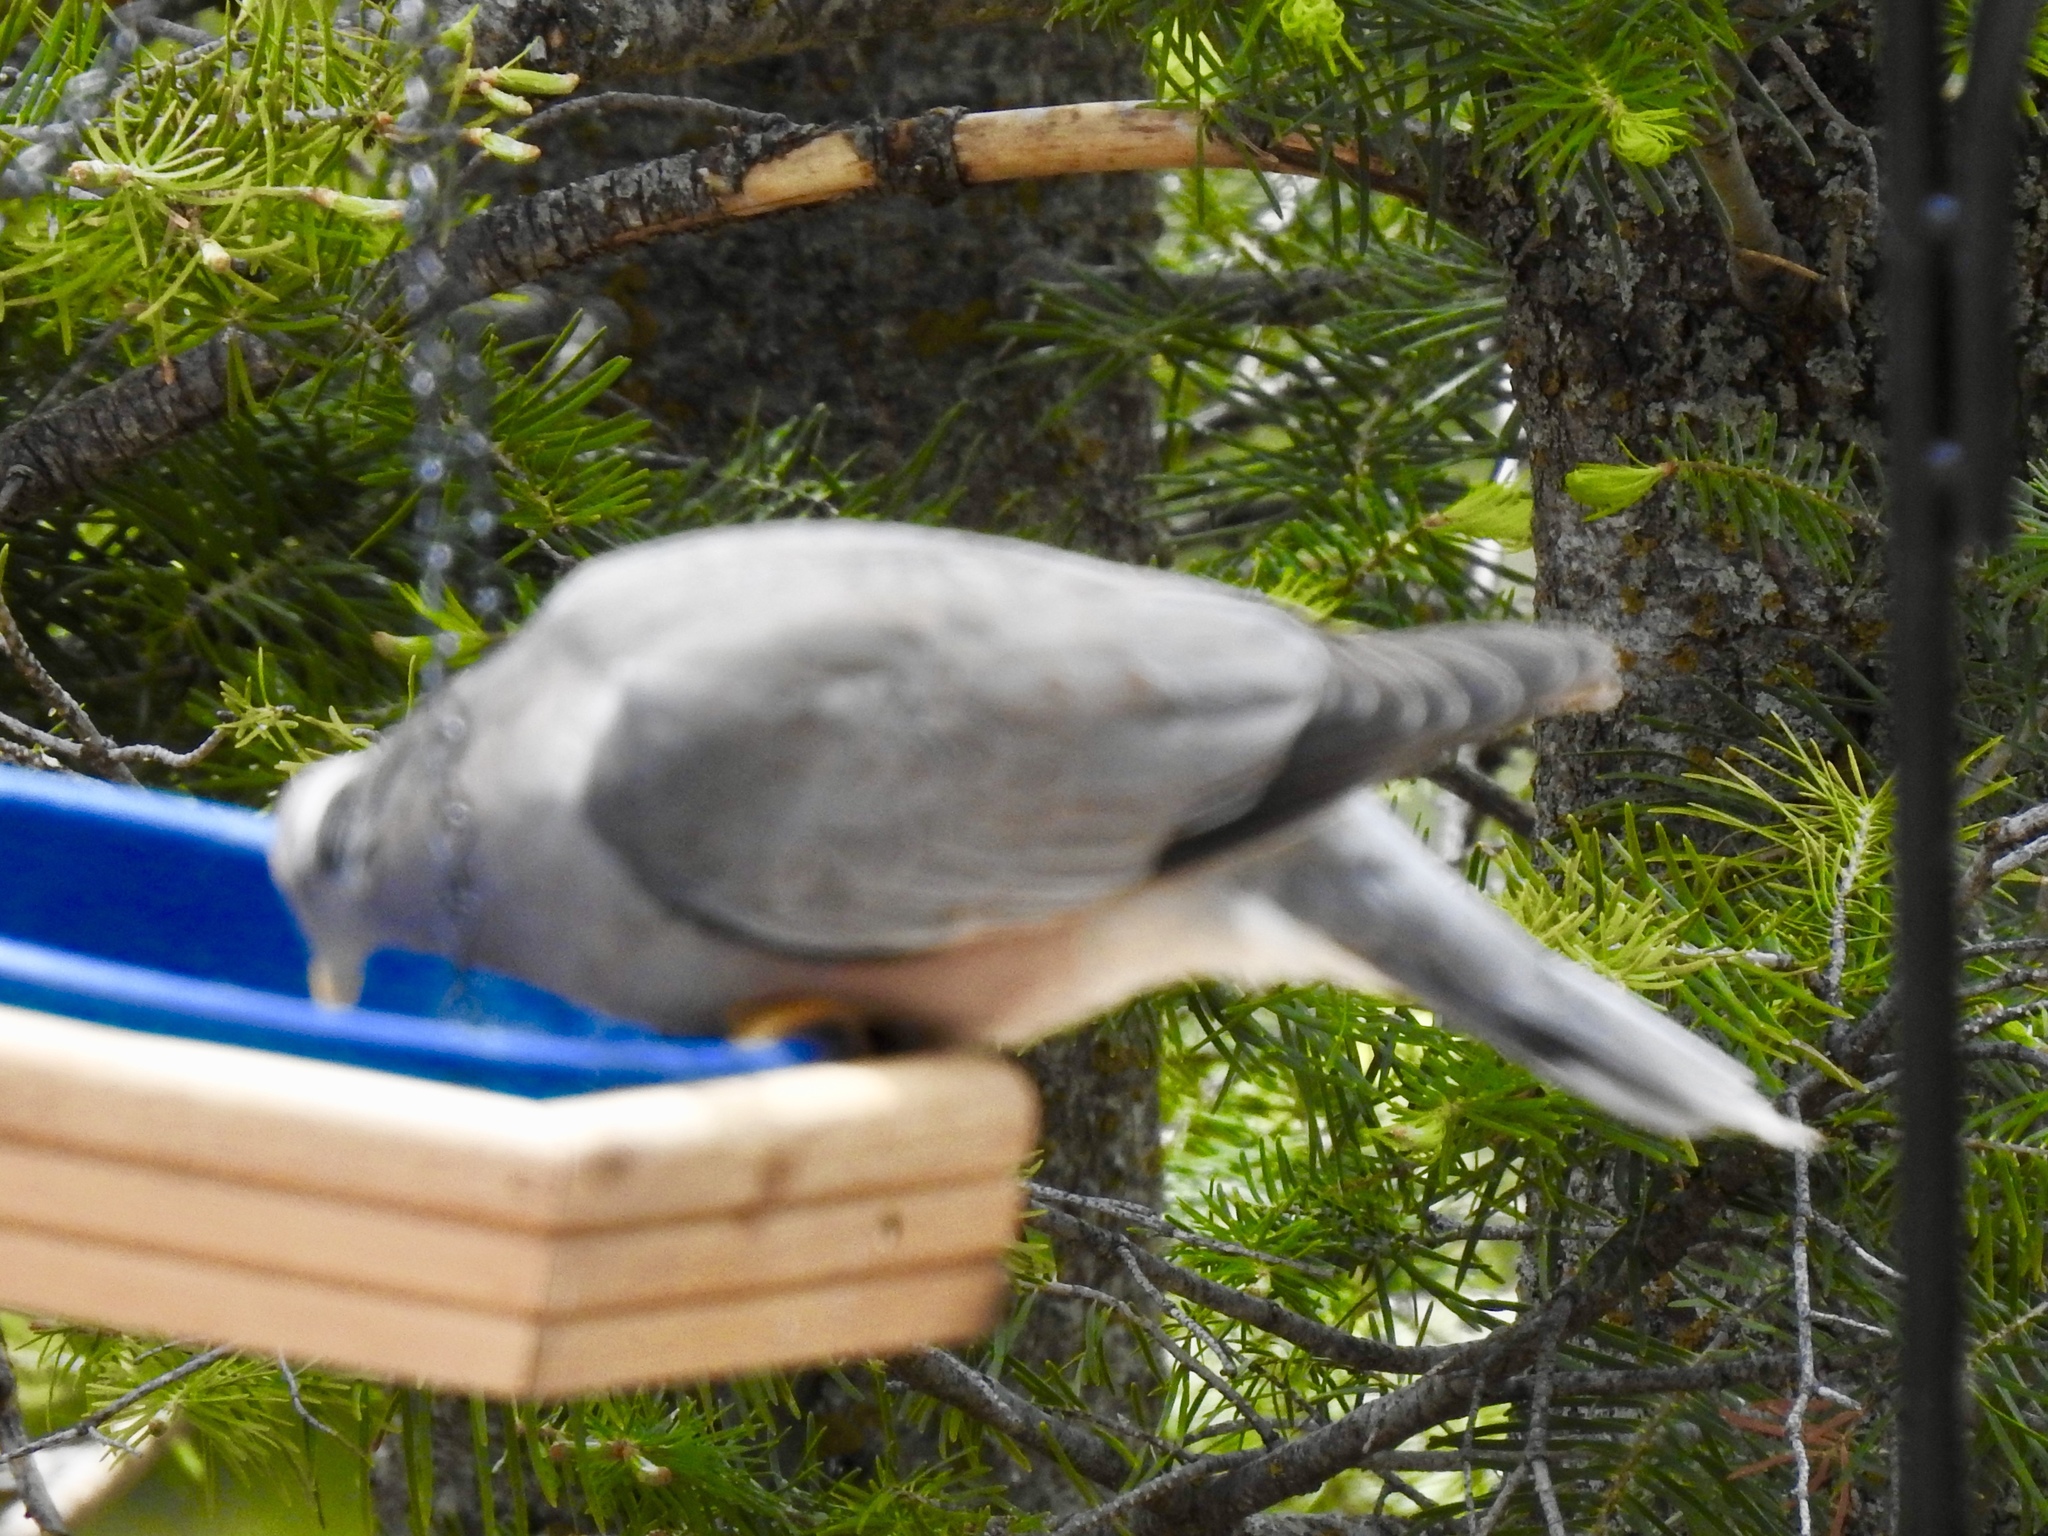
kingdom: Animalia
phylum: Chordata
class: Aves
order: Columbiformes
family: Columbidae
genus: Patagioenas
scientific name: Patagioenas fasciata
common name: Band-tailed pigeon
